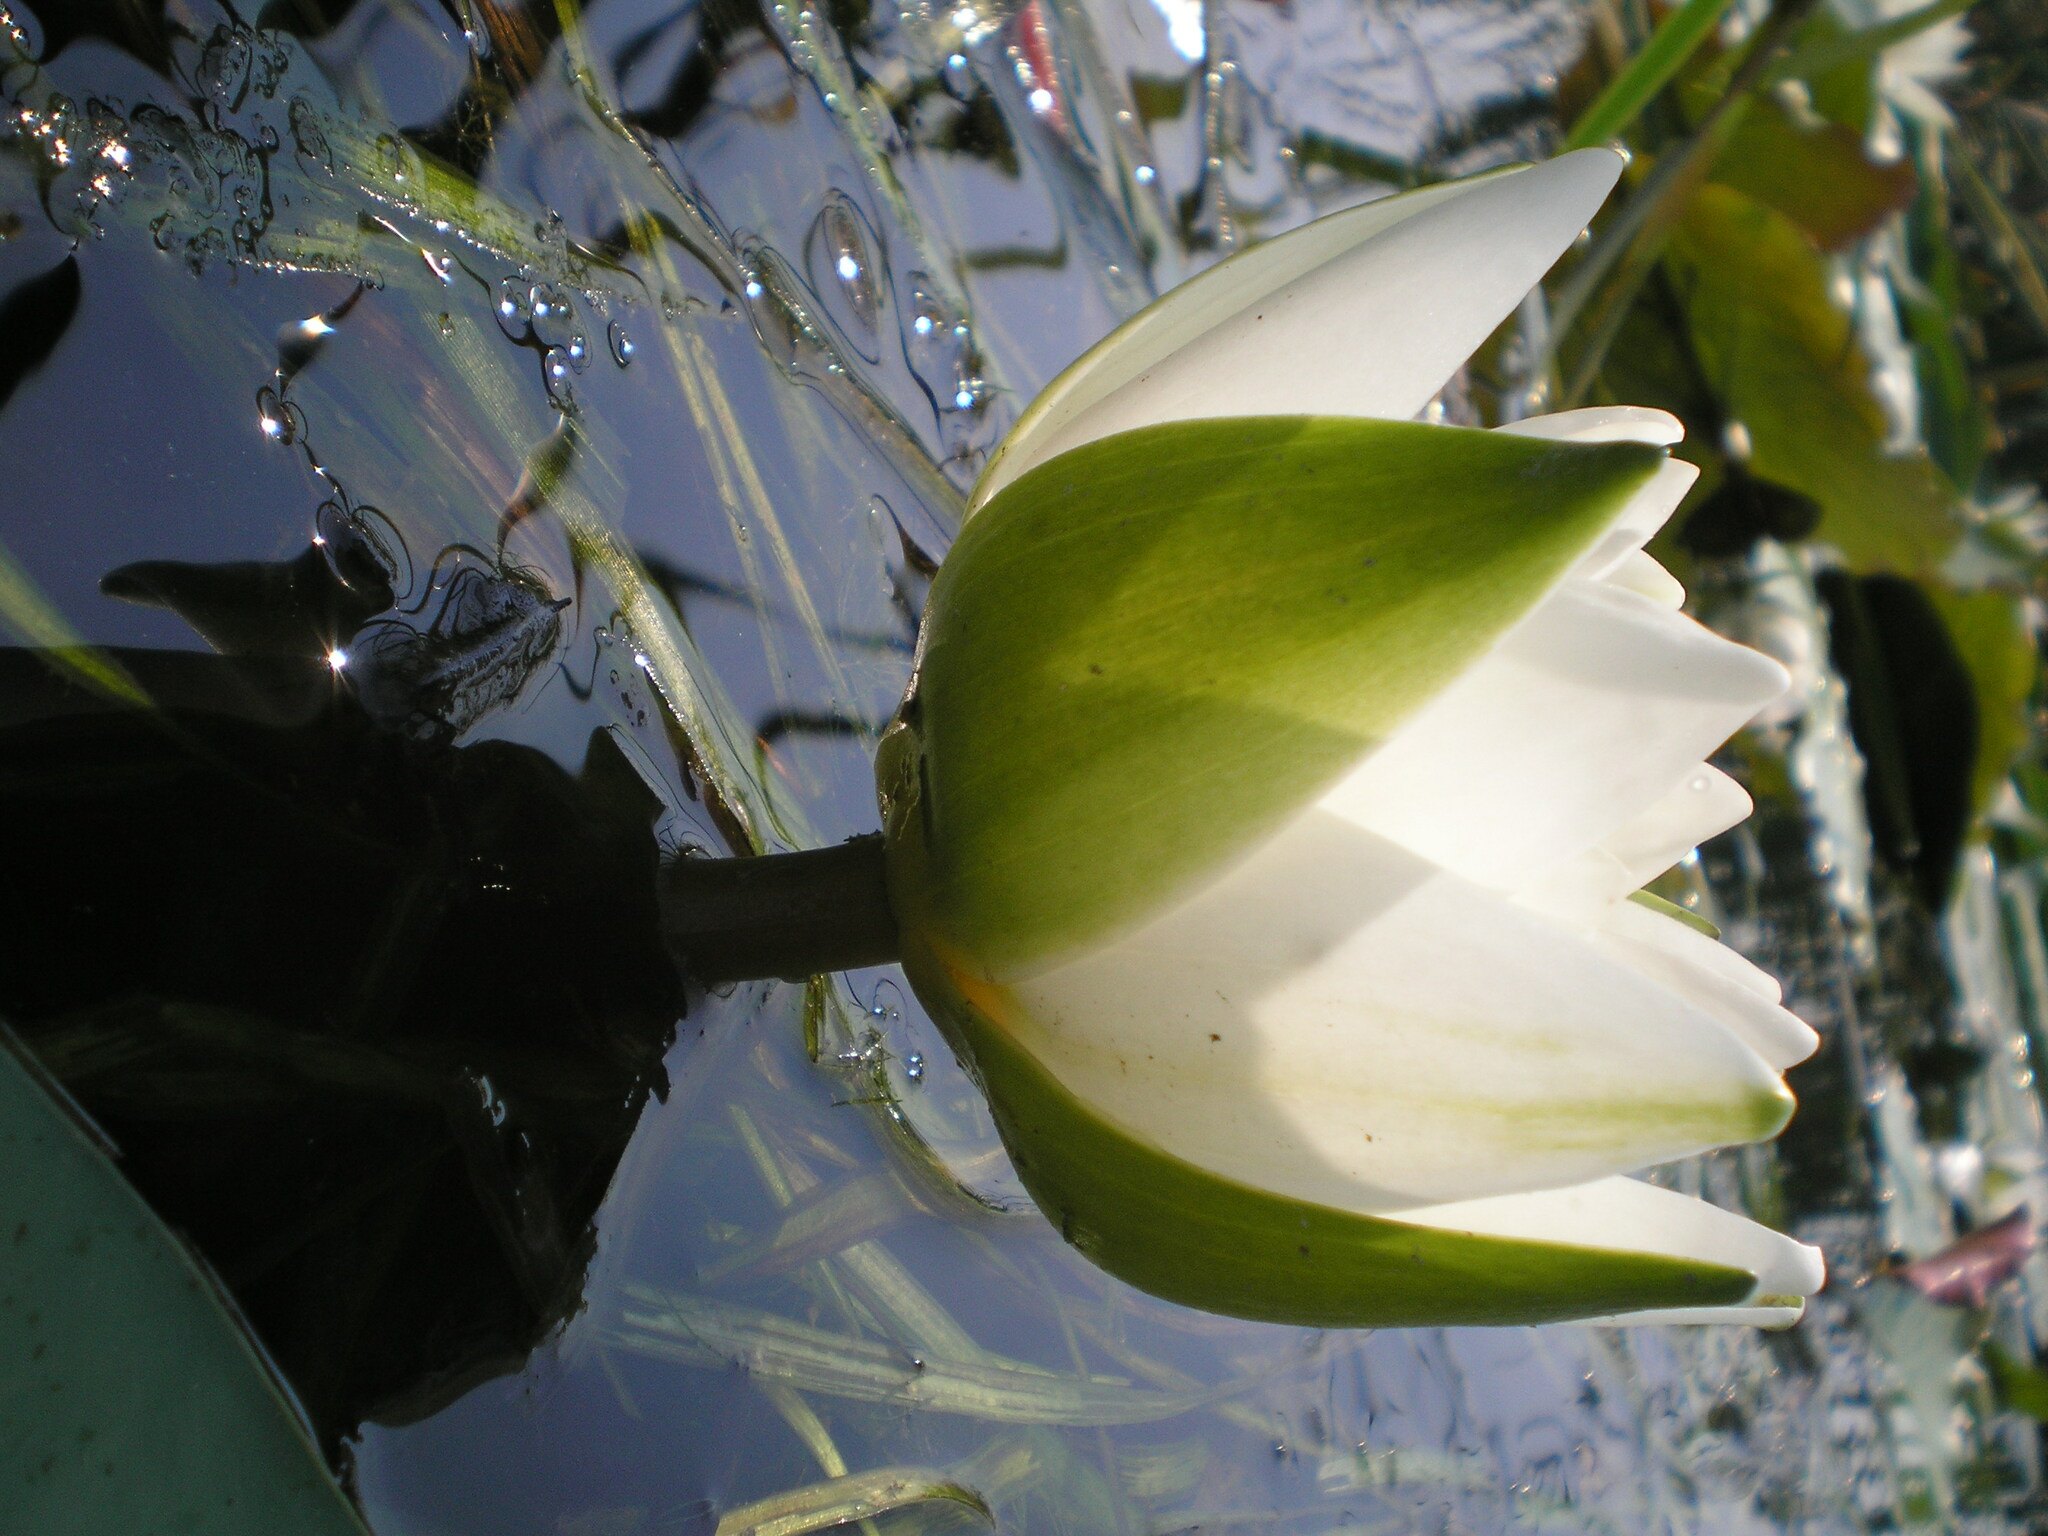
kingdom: Plantae
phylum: Tracheophyta
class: Magnoliopsida
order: Nymphaeales
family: Nymphaeaceae
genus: Nymphaea
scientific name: Nymphaea alba
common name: White water-lily
